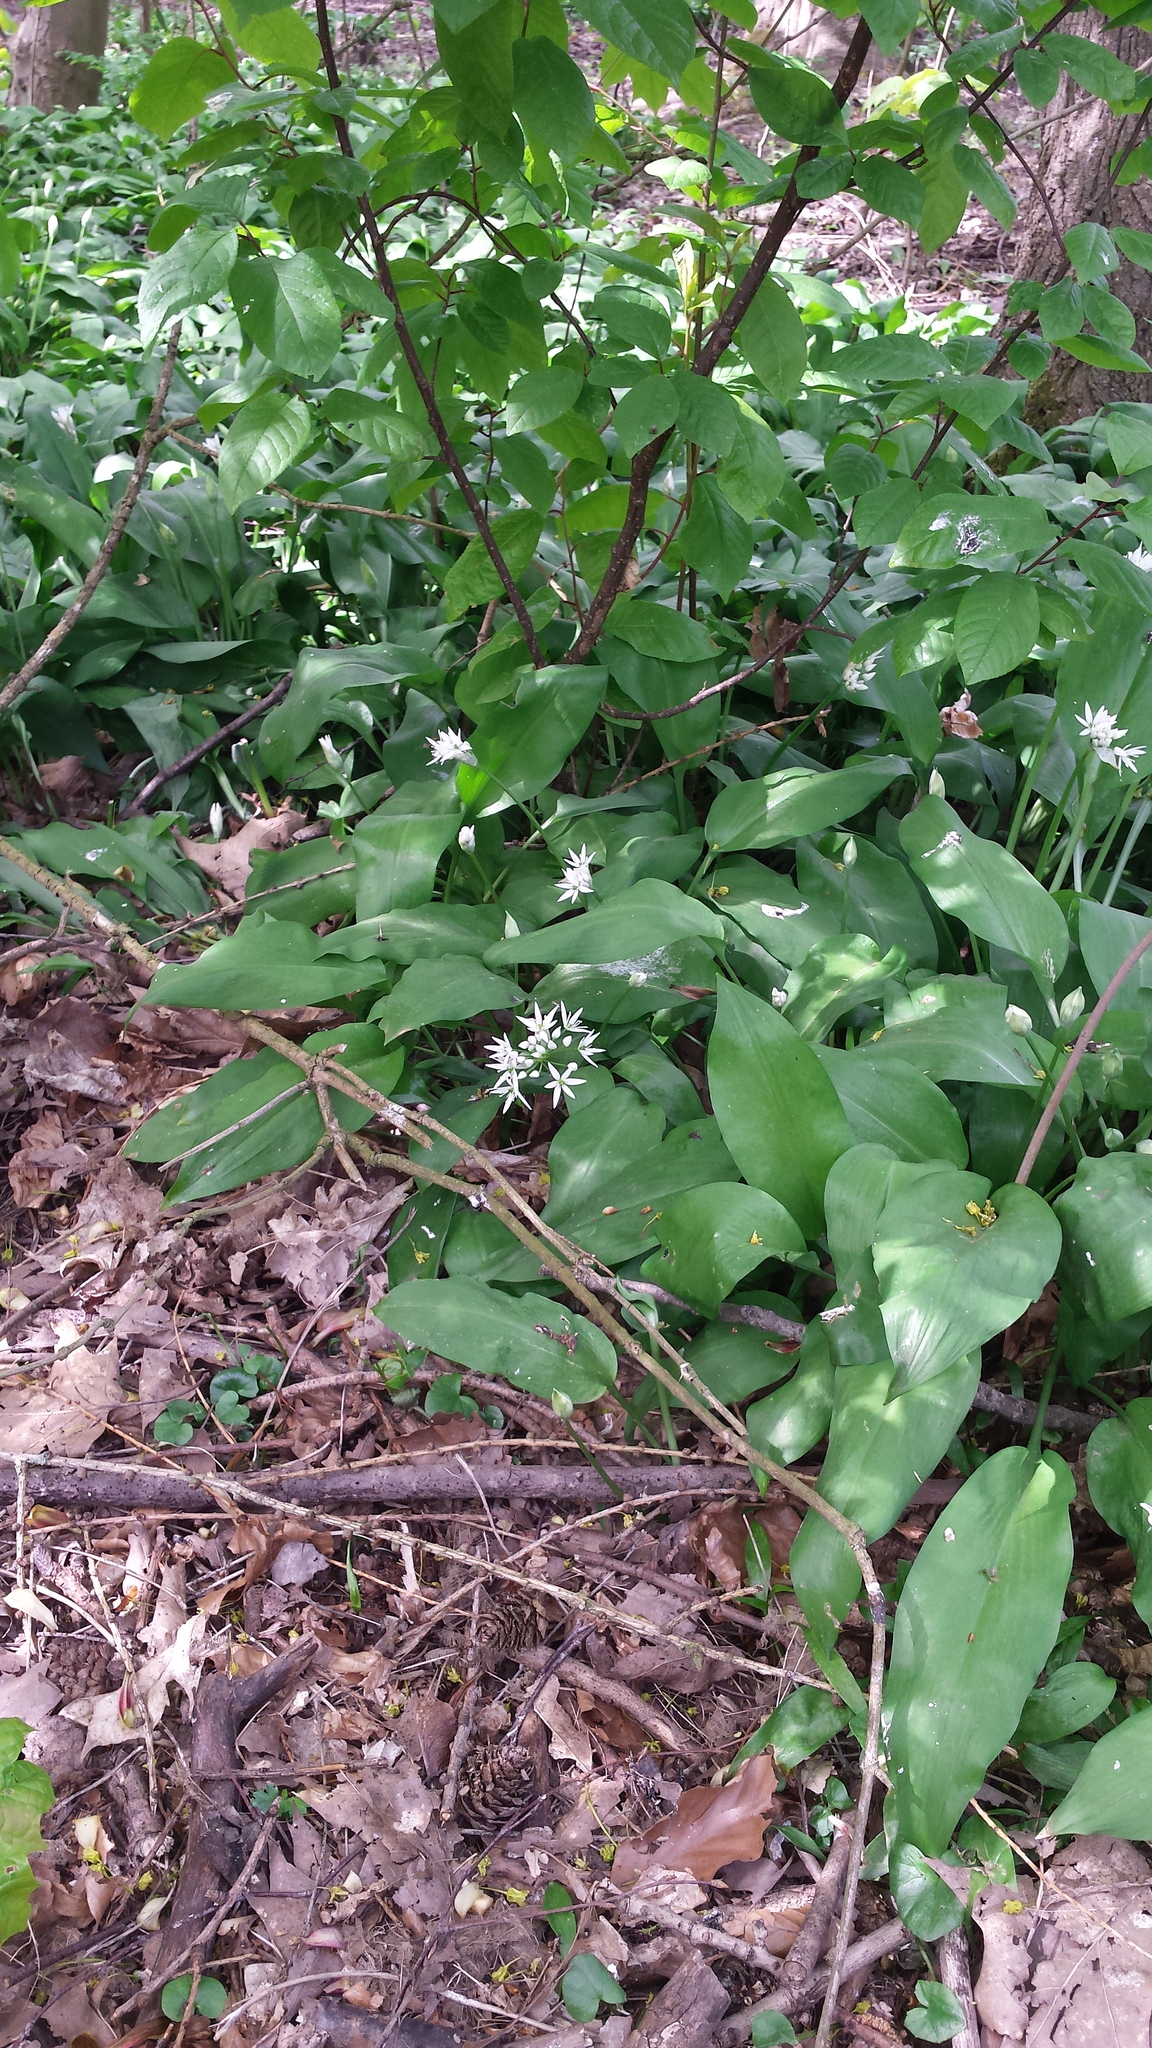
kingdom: Plantae
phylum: Tracheophyta
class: Liliopsida
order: Asparagales
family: Amaryllidaceae
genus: Allium
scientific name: Allium ursinum
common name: Ramsons
